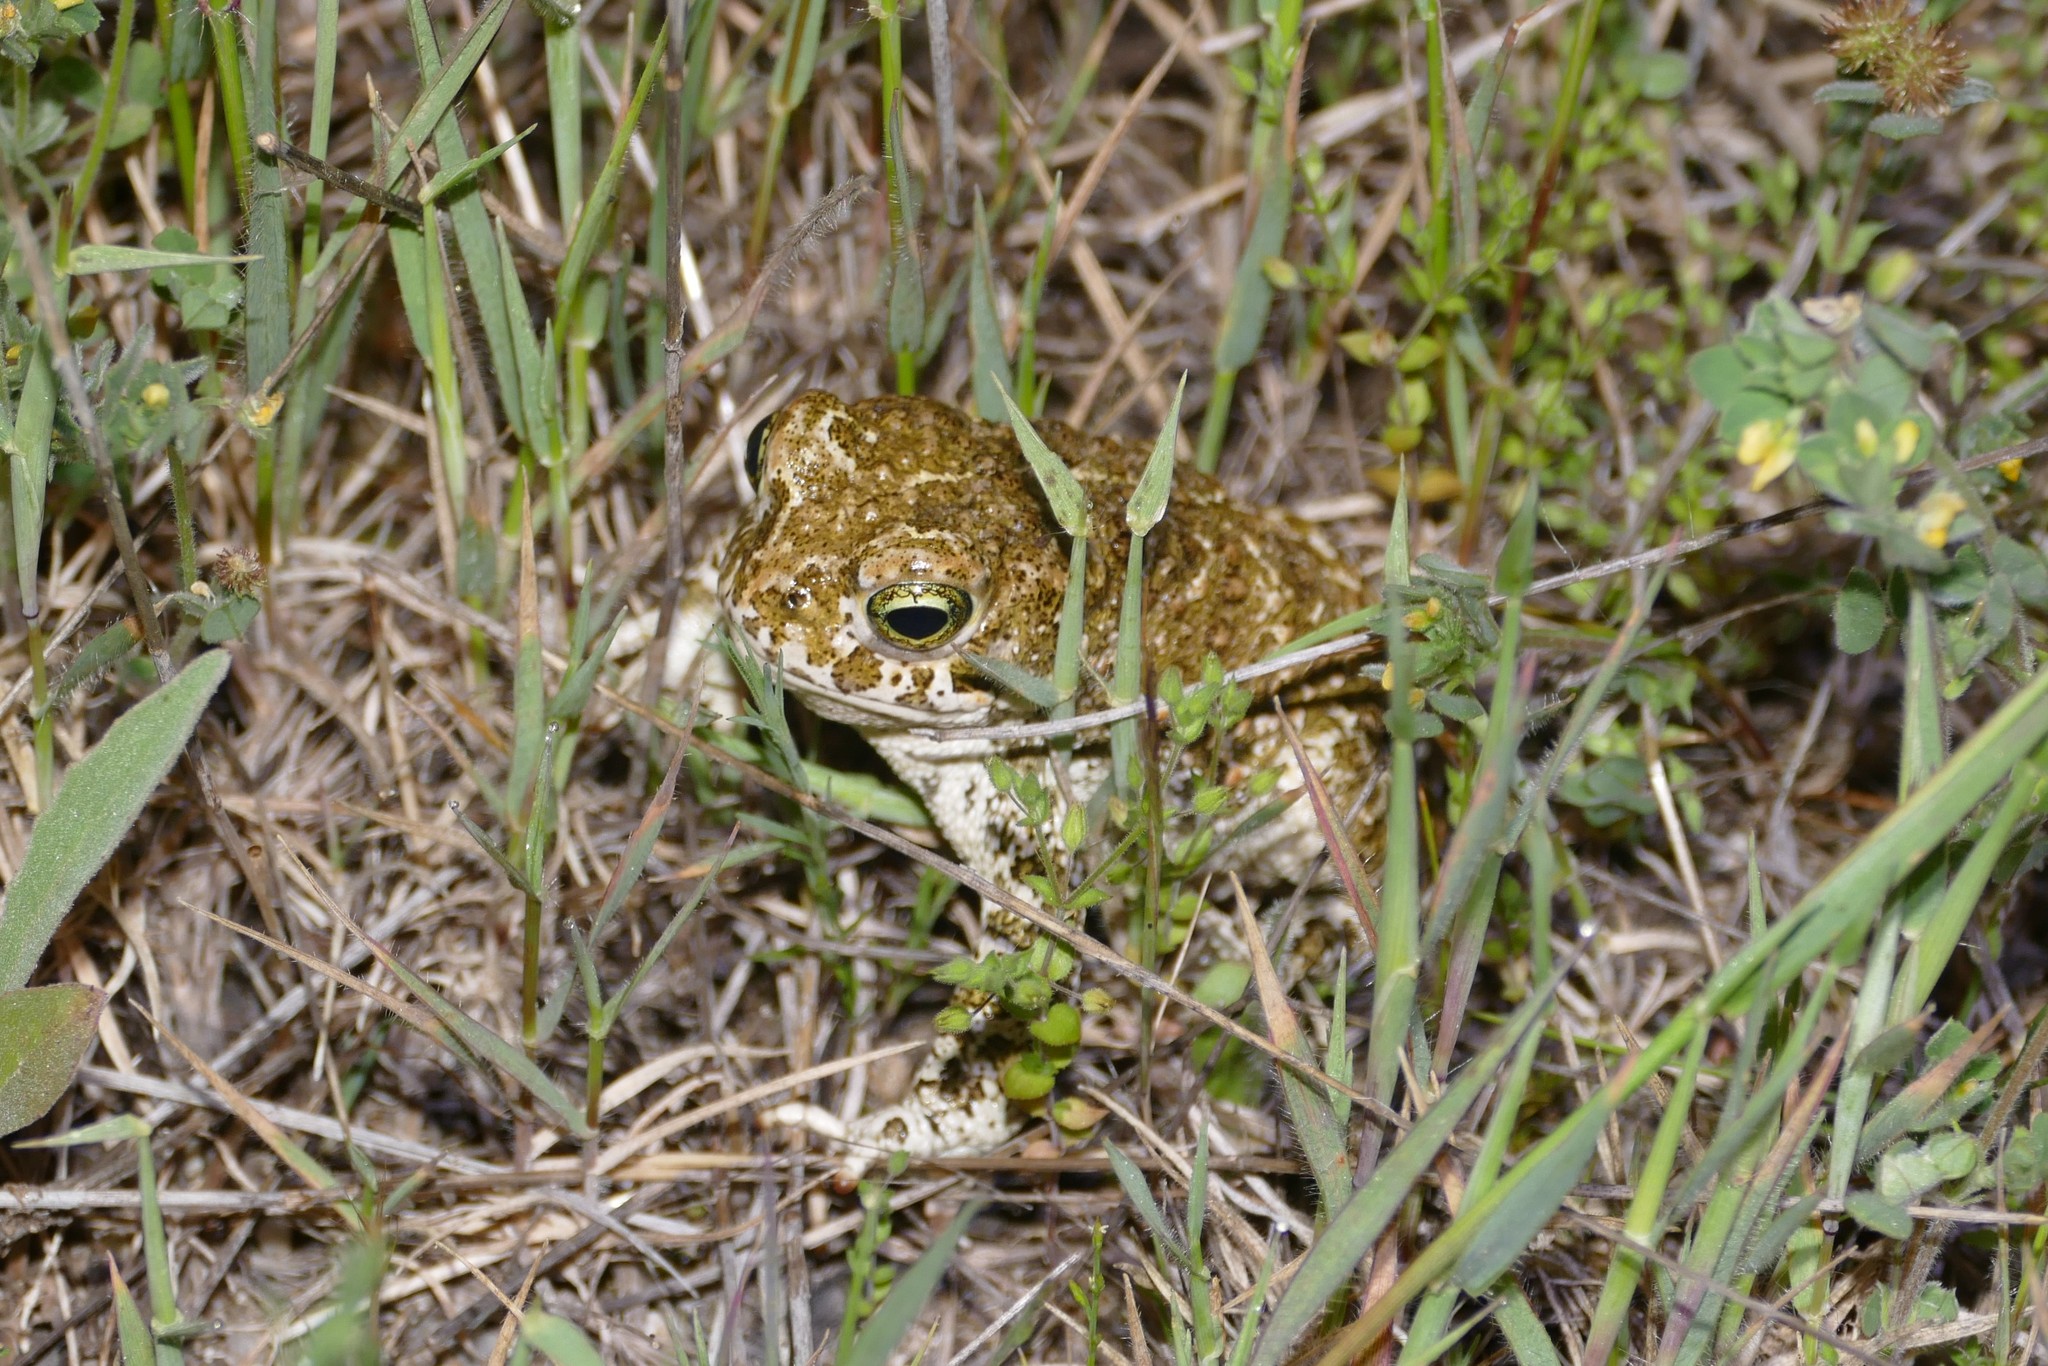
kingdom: Animalia
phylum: Chordata
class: Amphibia
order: Anura
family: Bufonidae
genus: Epidalea
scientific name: Epidalea calamita
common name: Natterjack toad
